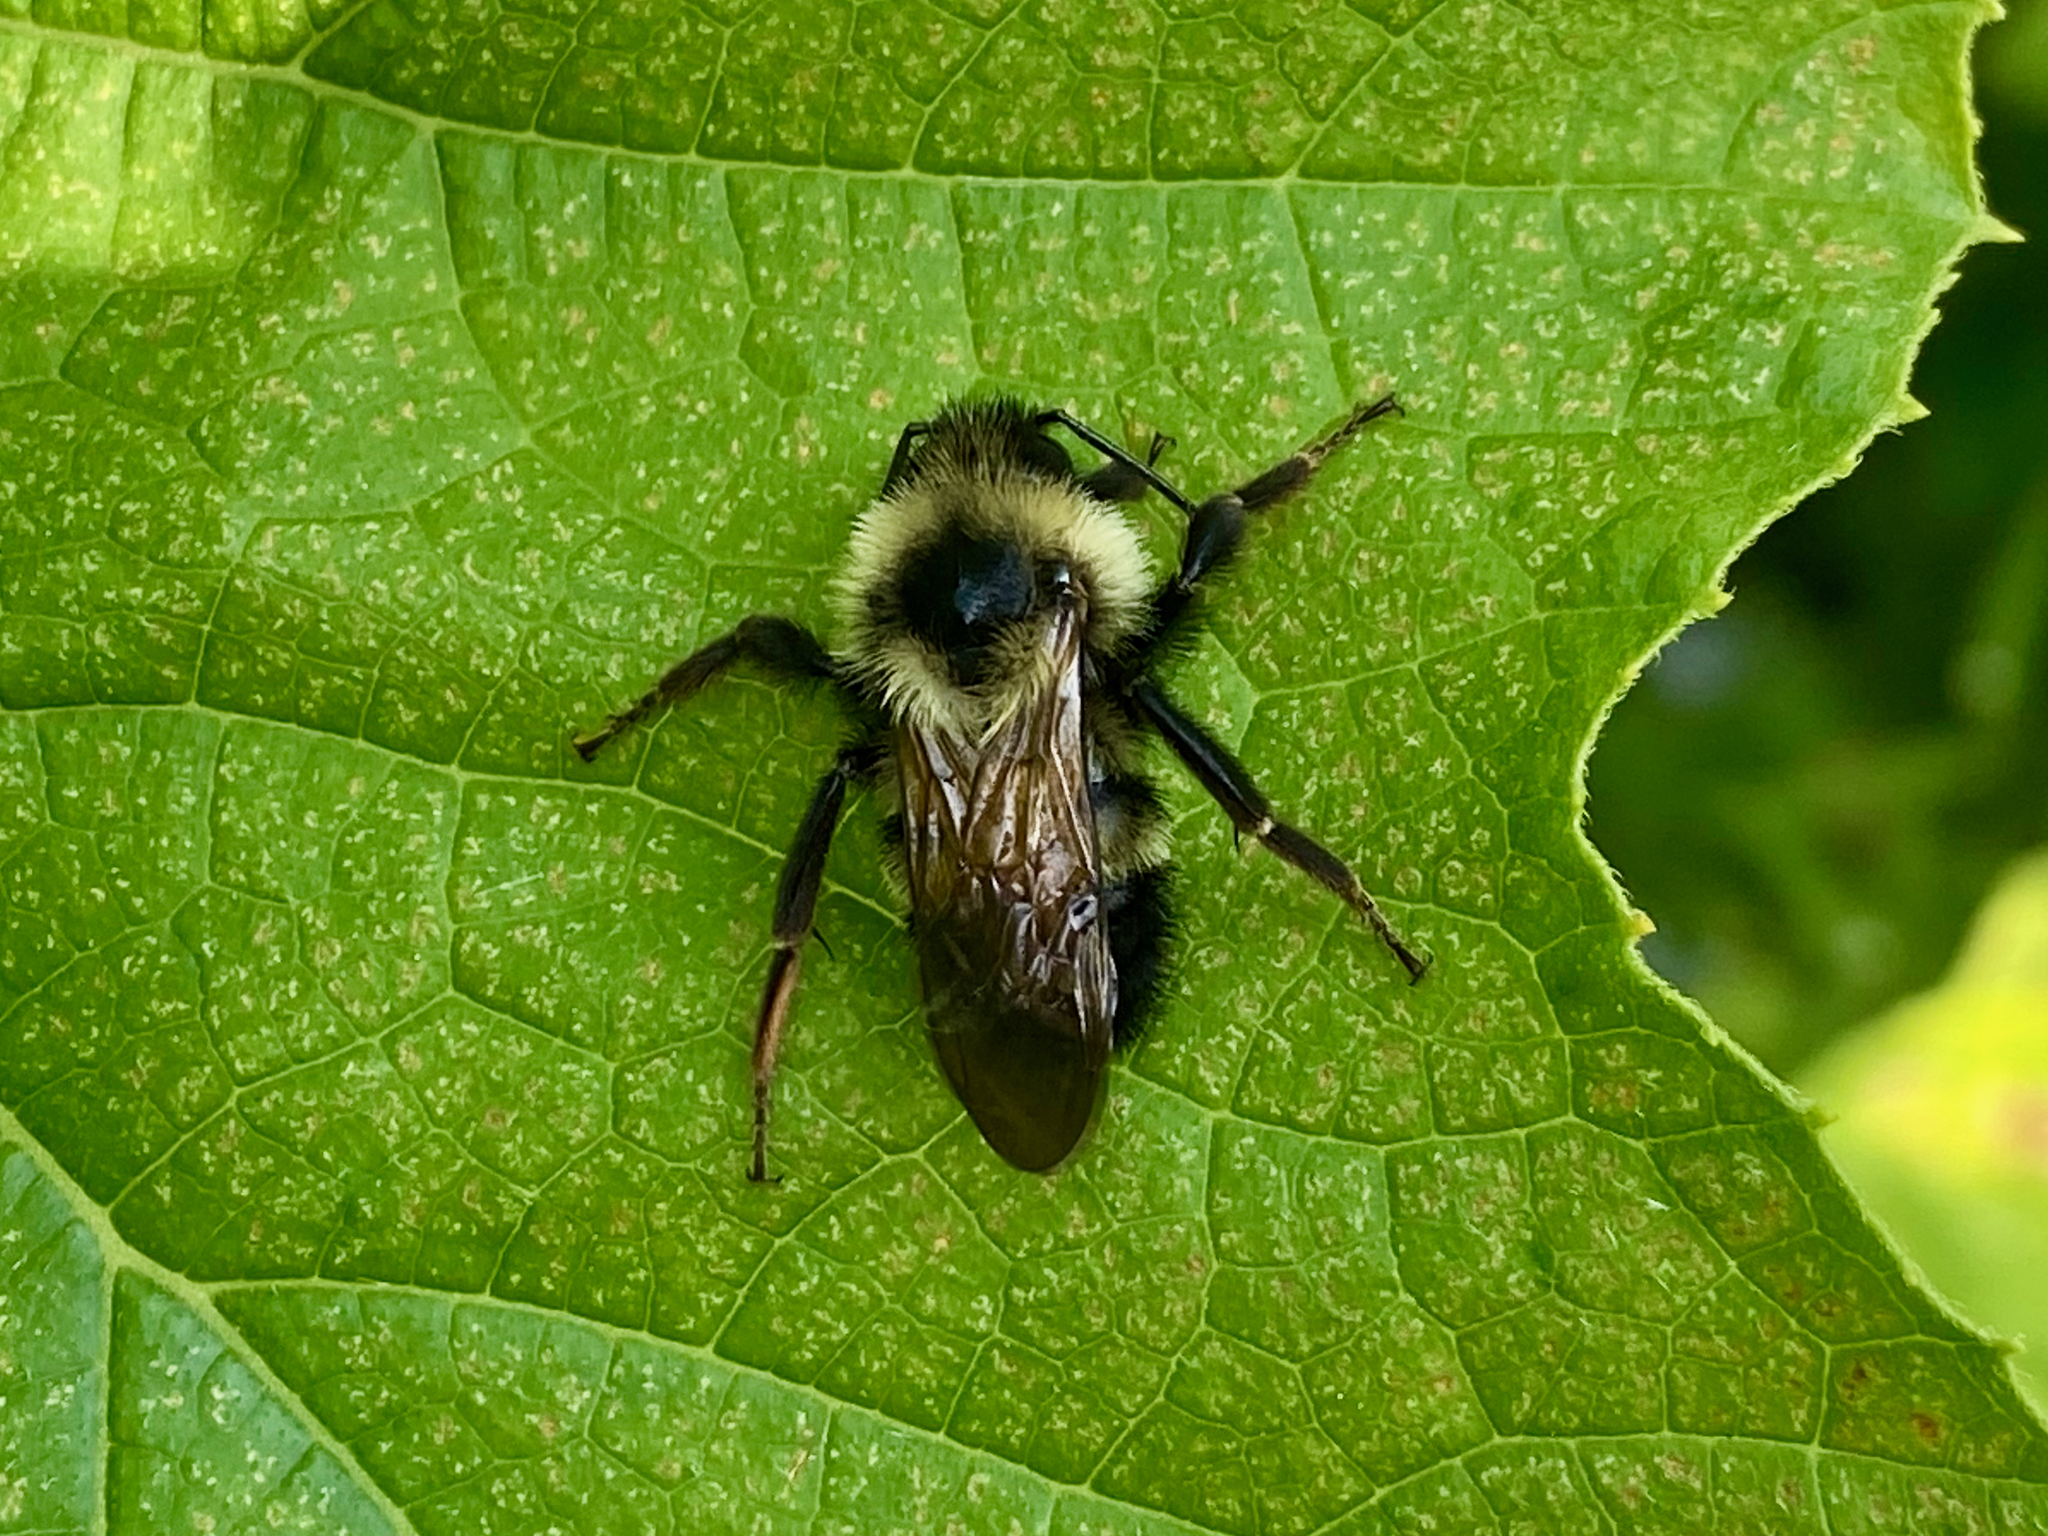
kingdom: Animalia
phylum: Arthropoda
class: Insecta
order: Hymenoptera
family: Apidae
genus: Bombus
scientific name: Bombus citrinus
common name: Lemon cuckoo bumble bee
